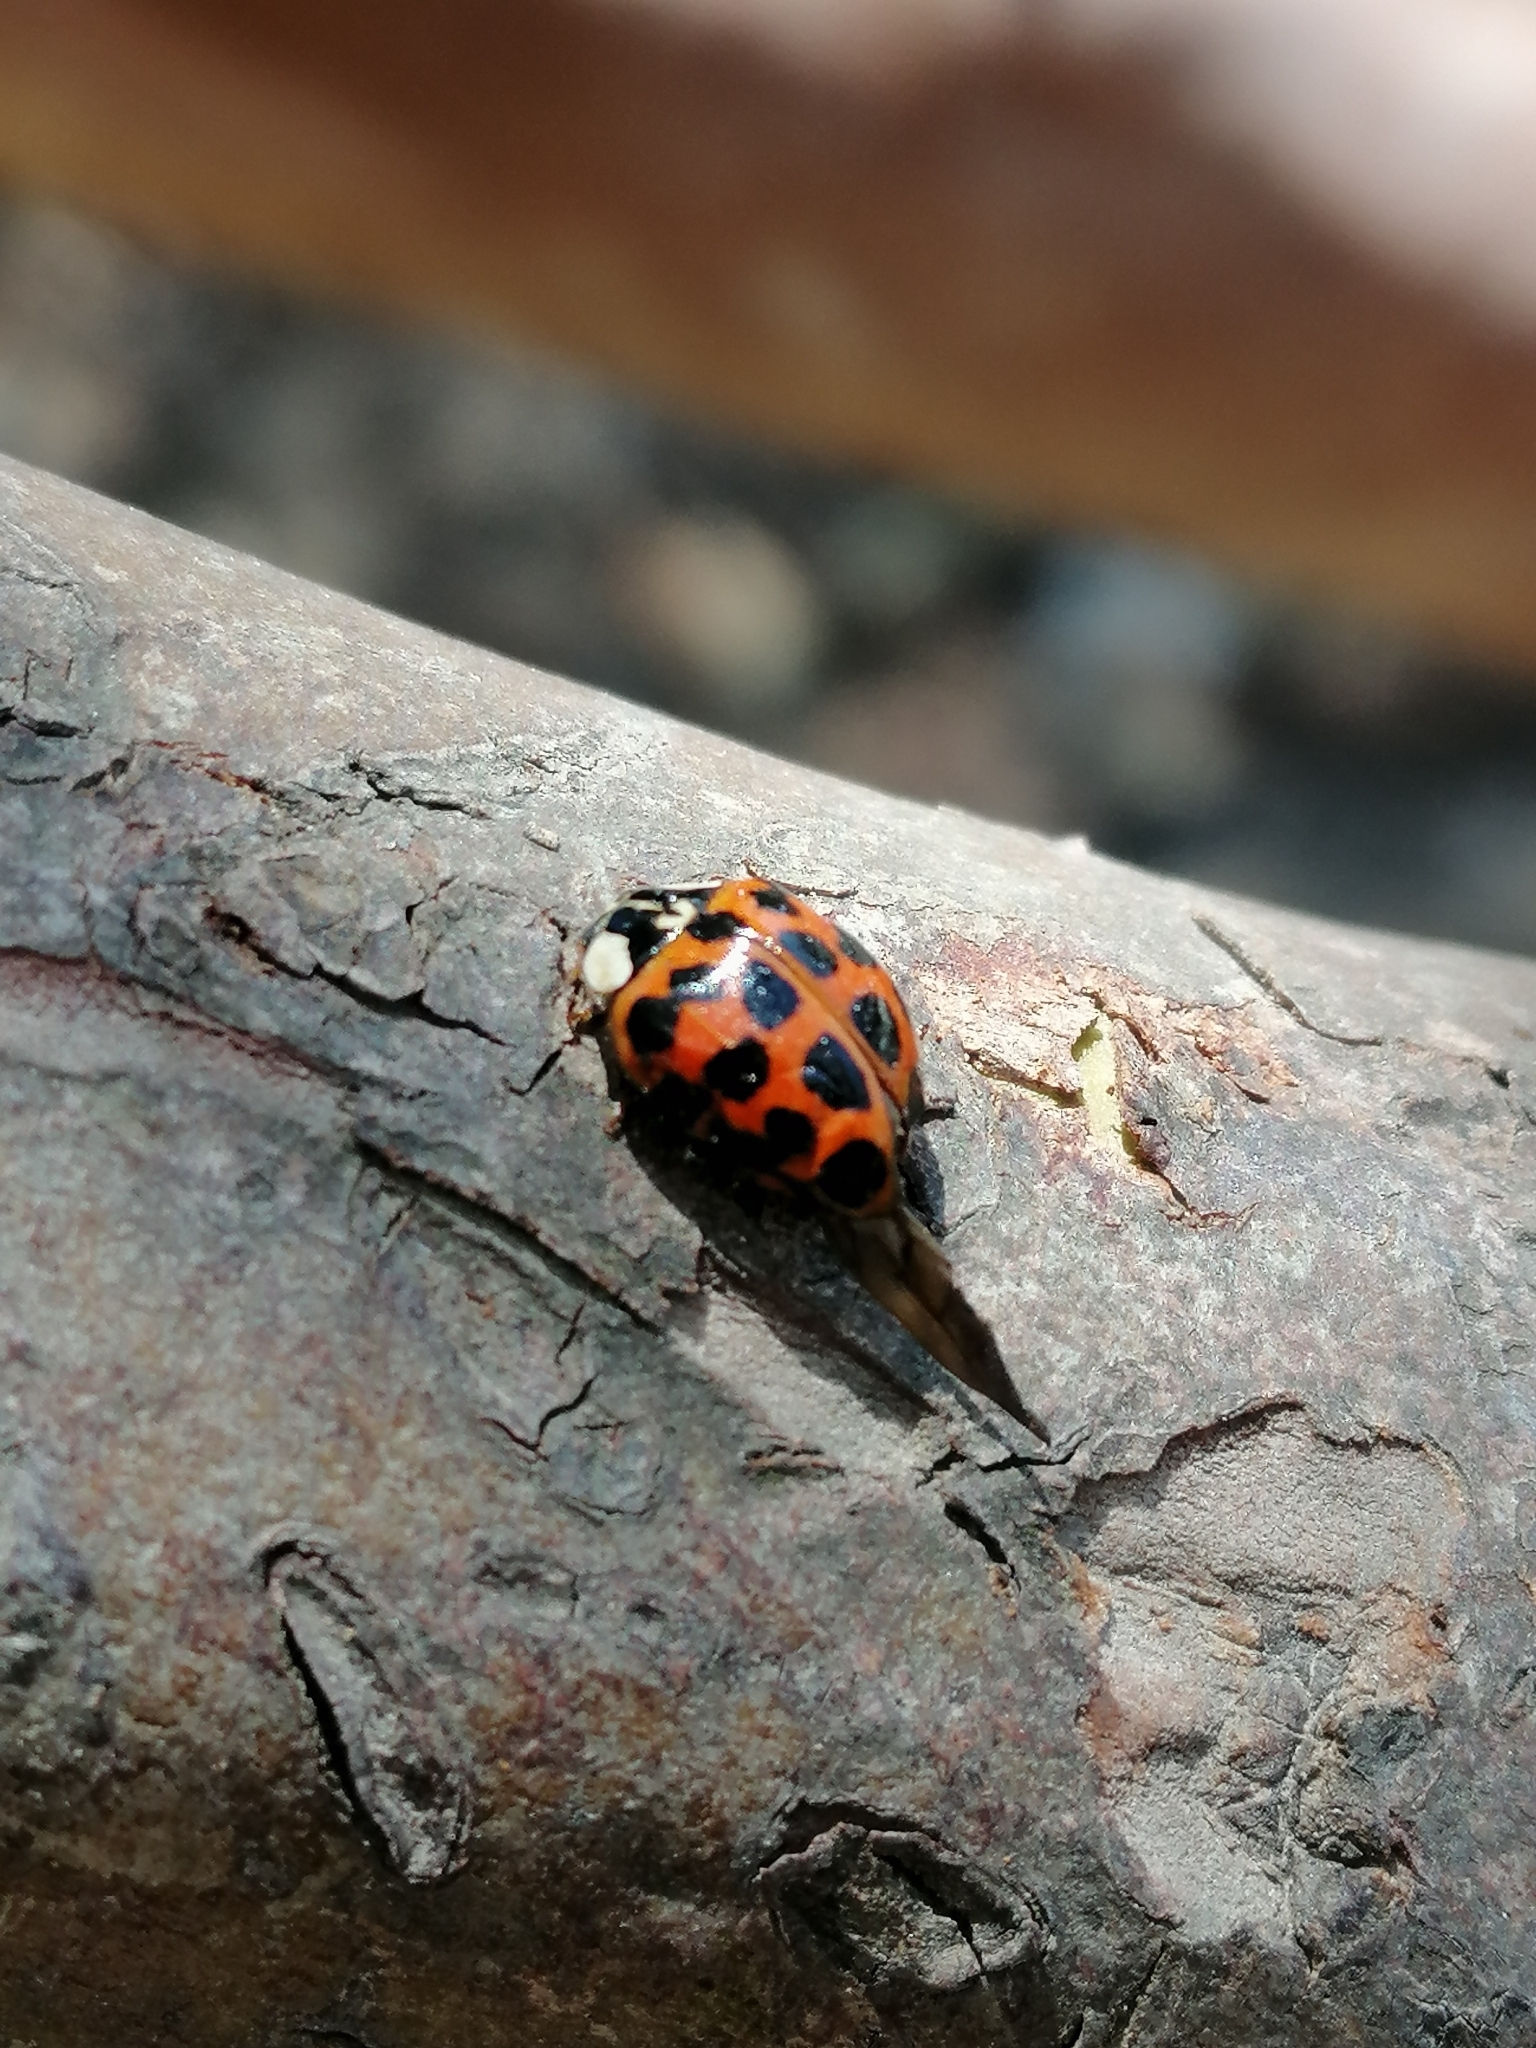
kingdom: Animalia
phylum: Arthropoda
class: Insecta
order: Coleoptera
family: Coccinellidae
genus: Harmonia
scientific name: Harmonia axyridis
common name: Harlequin ladybird
